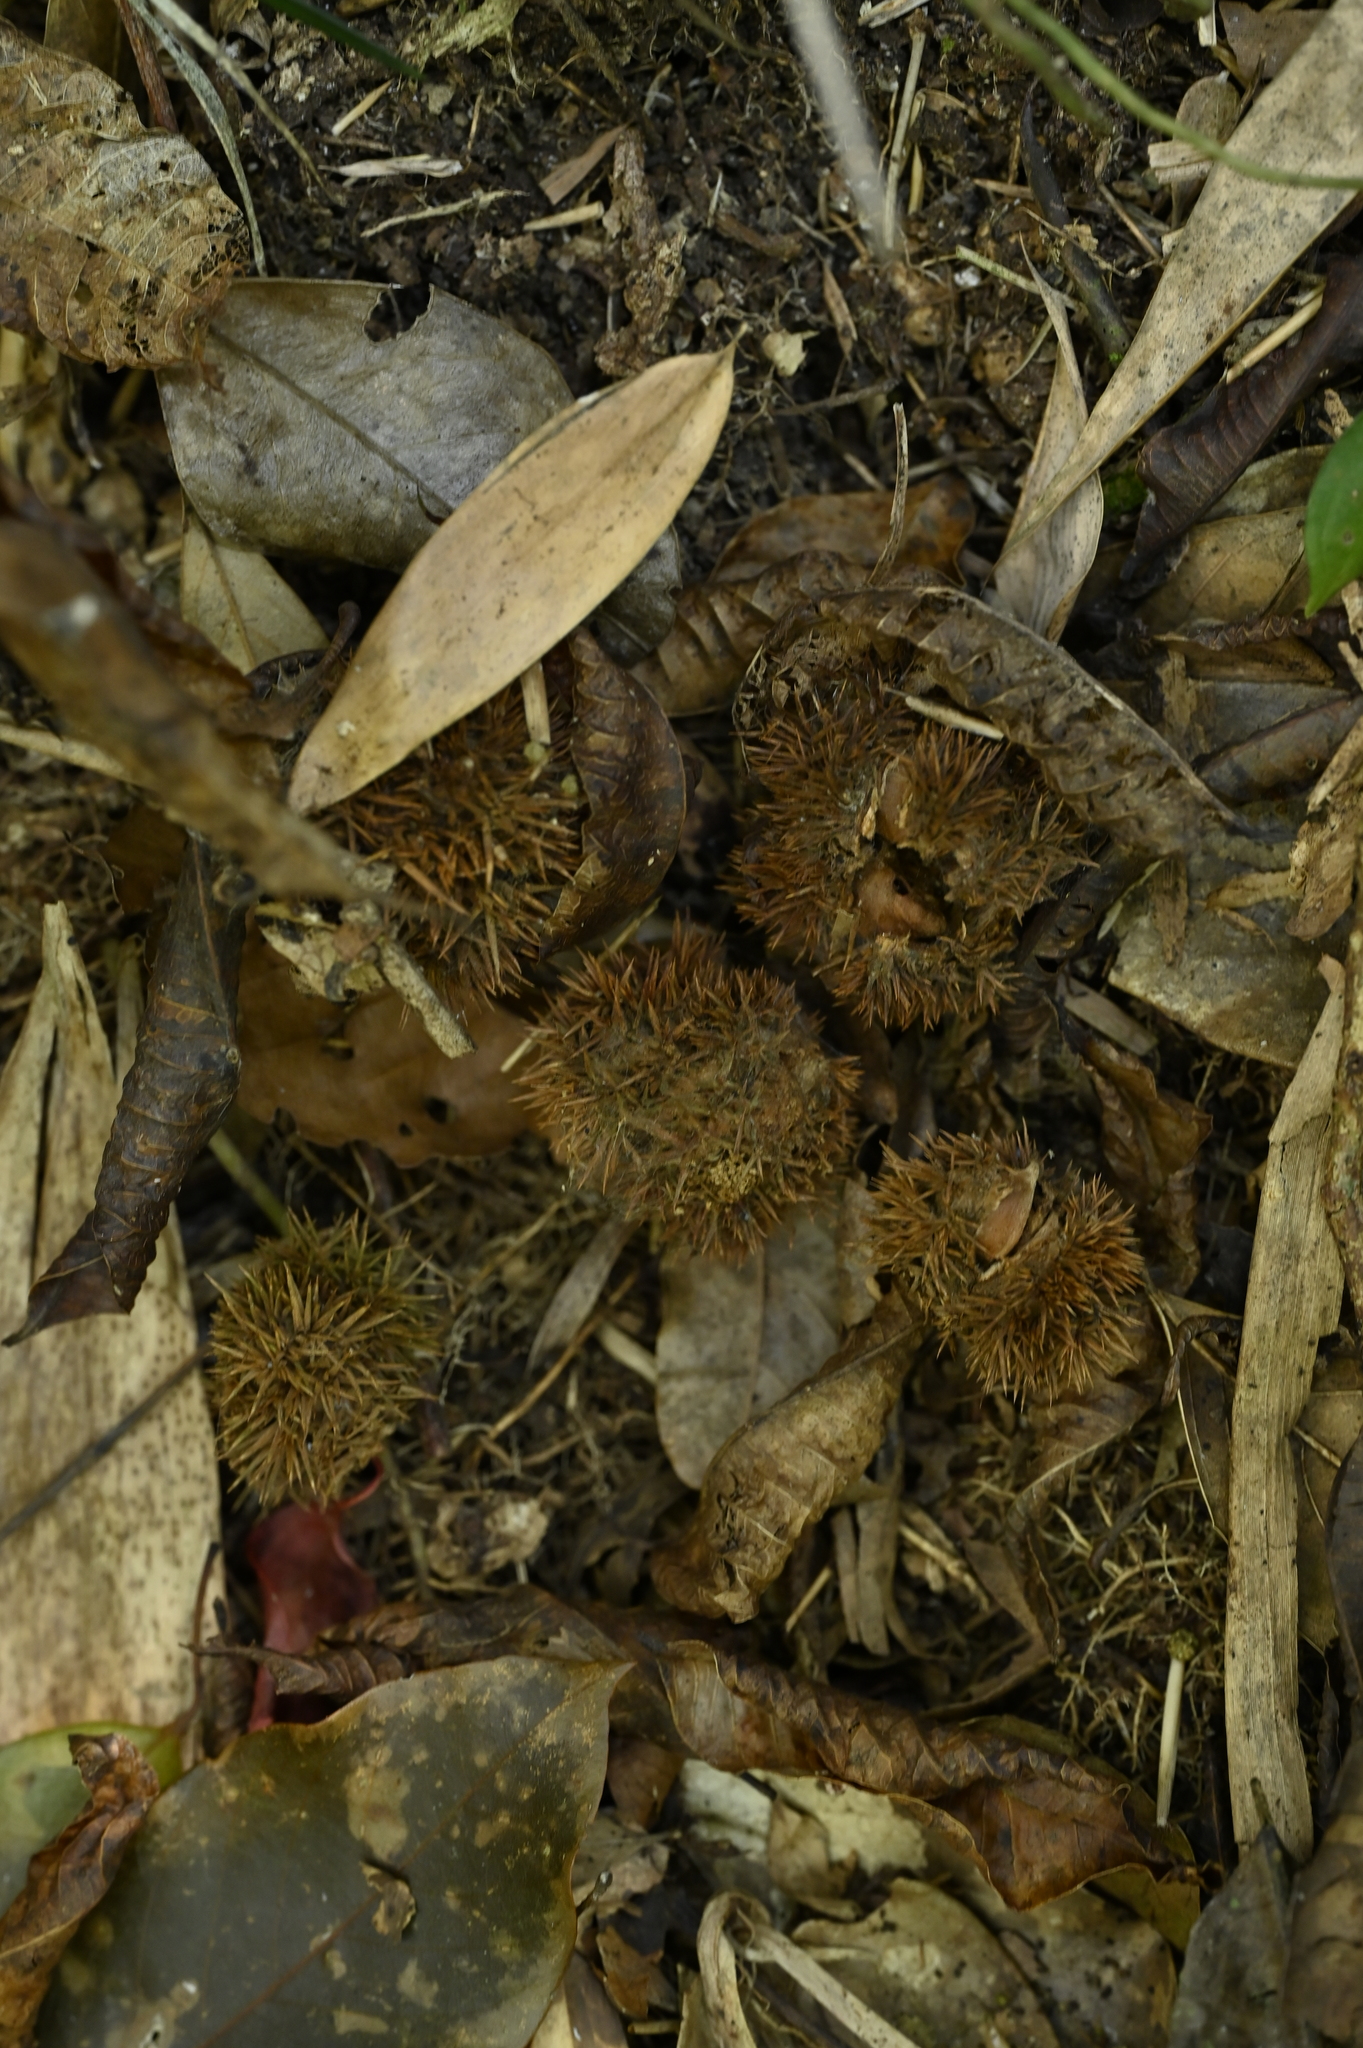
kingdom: Plantae
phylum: Tracheophyta
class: Magnoliopsida
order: Fagales
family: Fagaceae
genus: Castanopsis
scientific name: Castanopsis faberi
